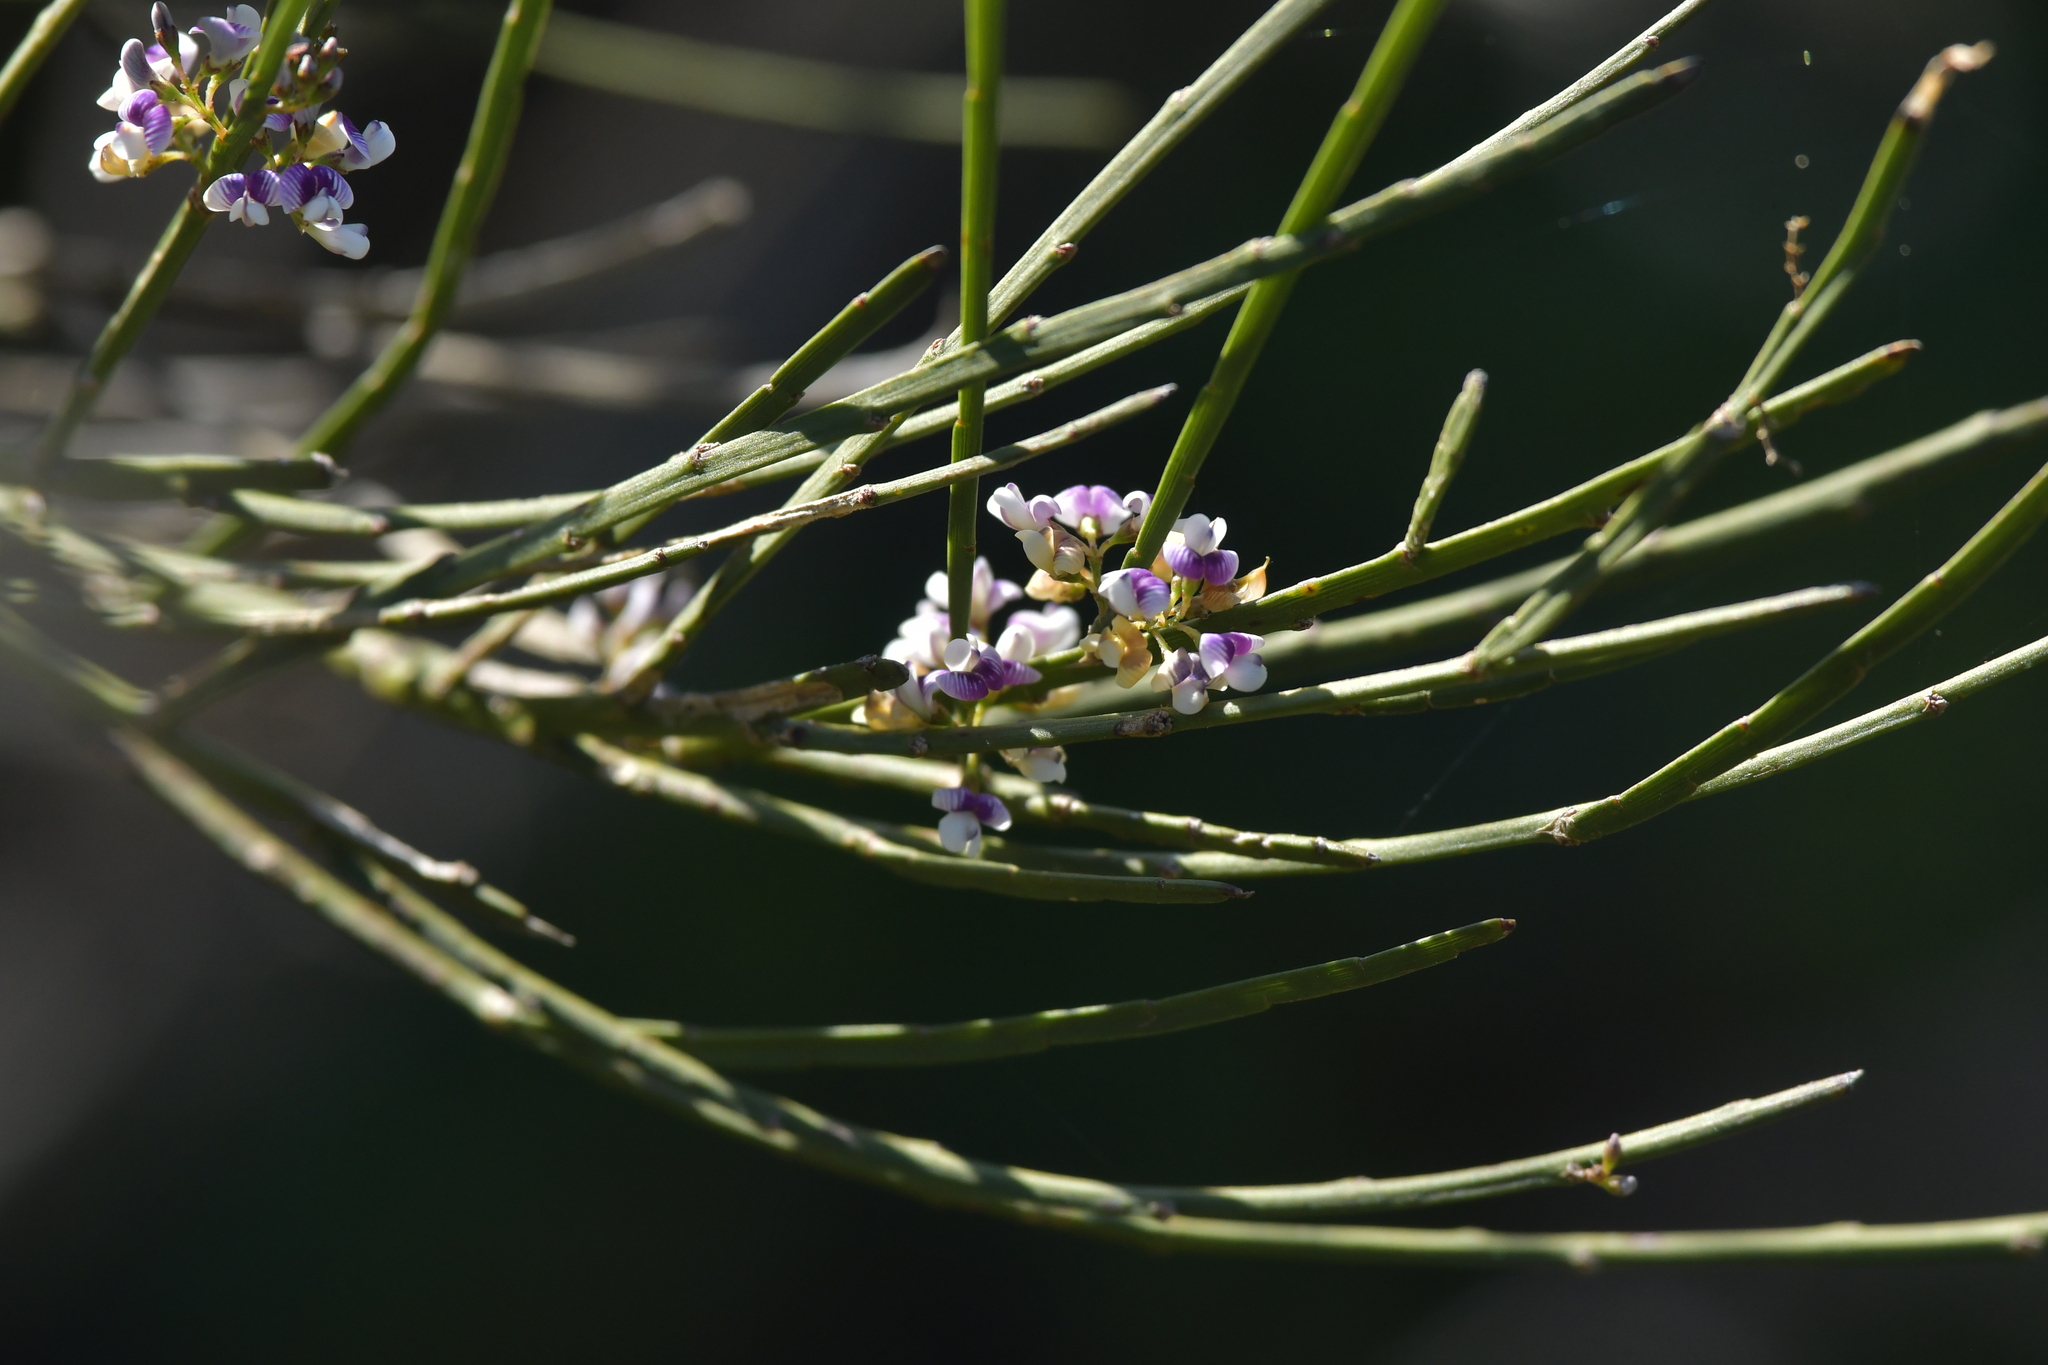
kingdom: Plantae
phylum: Tracheophyta
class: Magnoliopsida
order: Fabales
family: Fabaceae
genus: Carmichaelia
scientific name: Carmichaelia australis
